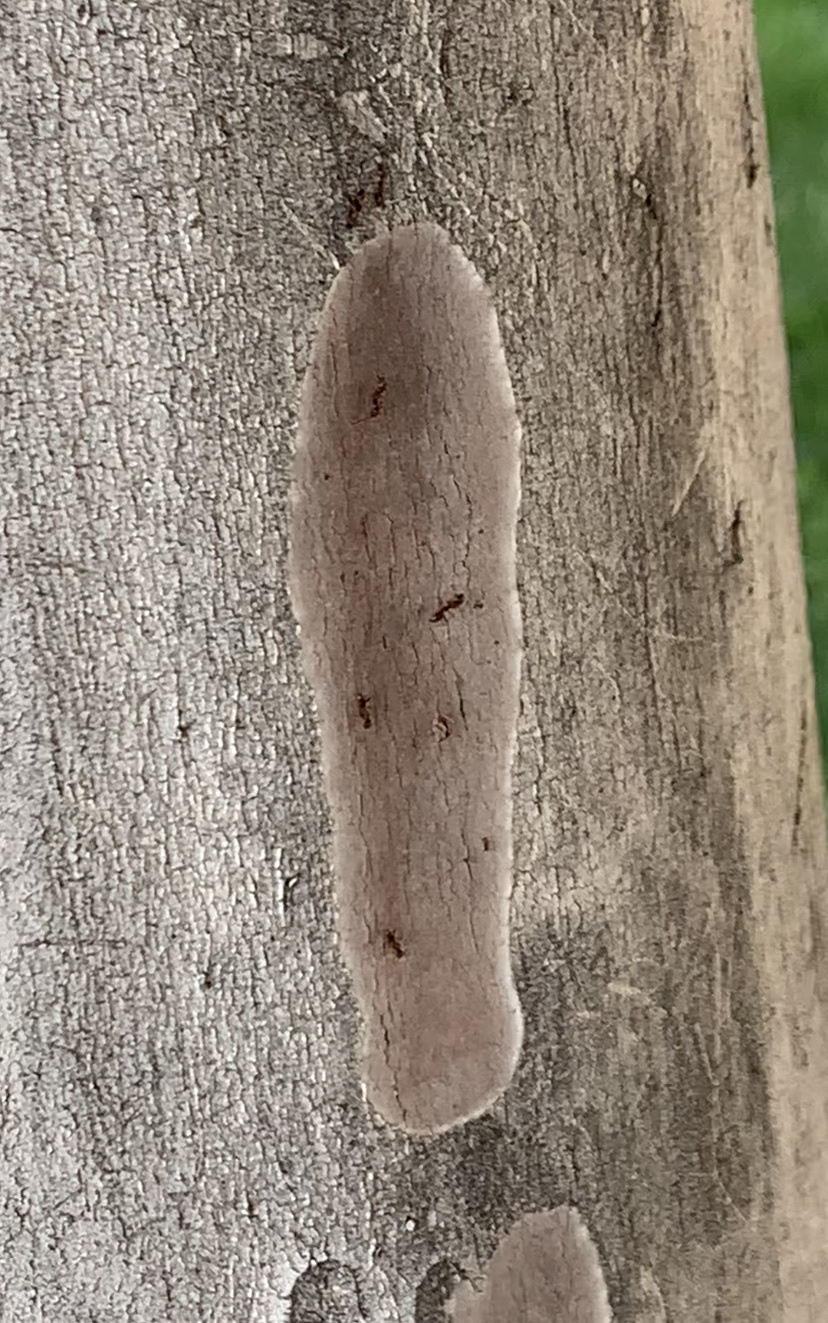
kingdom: Animalia
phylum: Arthropoda
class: Insecta
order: Hymenoptera
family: Formicidae
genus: Linepithema
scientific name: Linepithema humile
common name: Argentine ant
